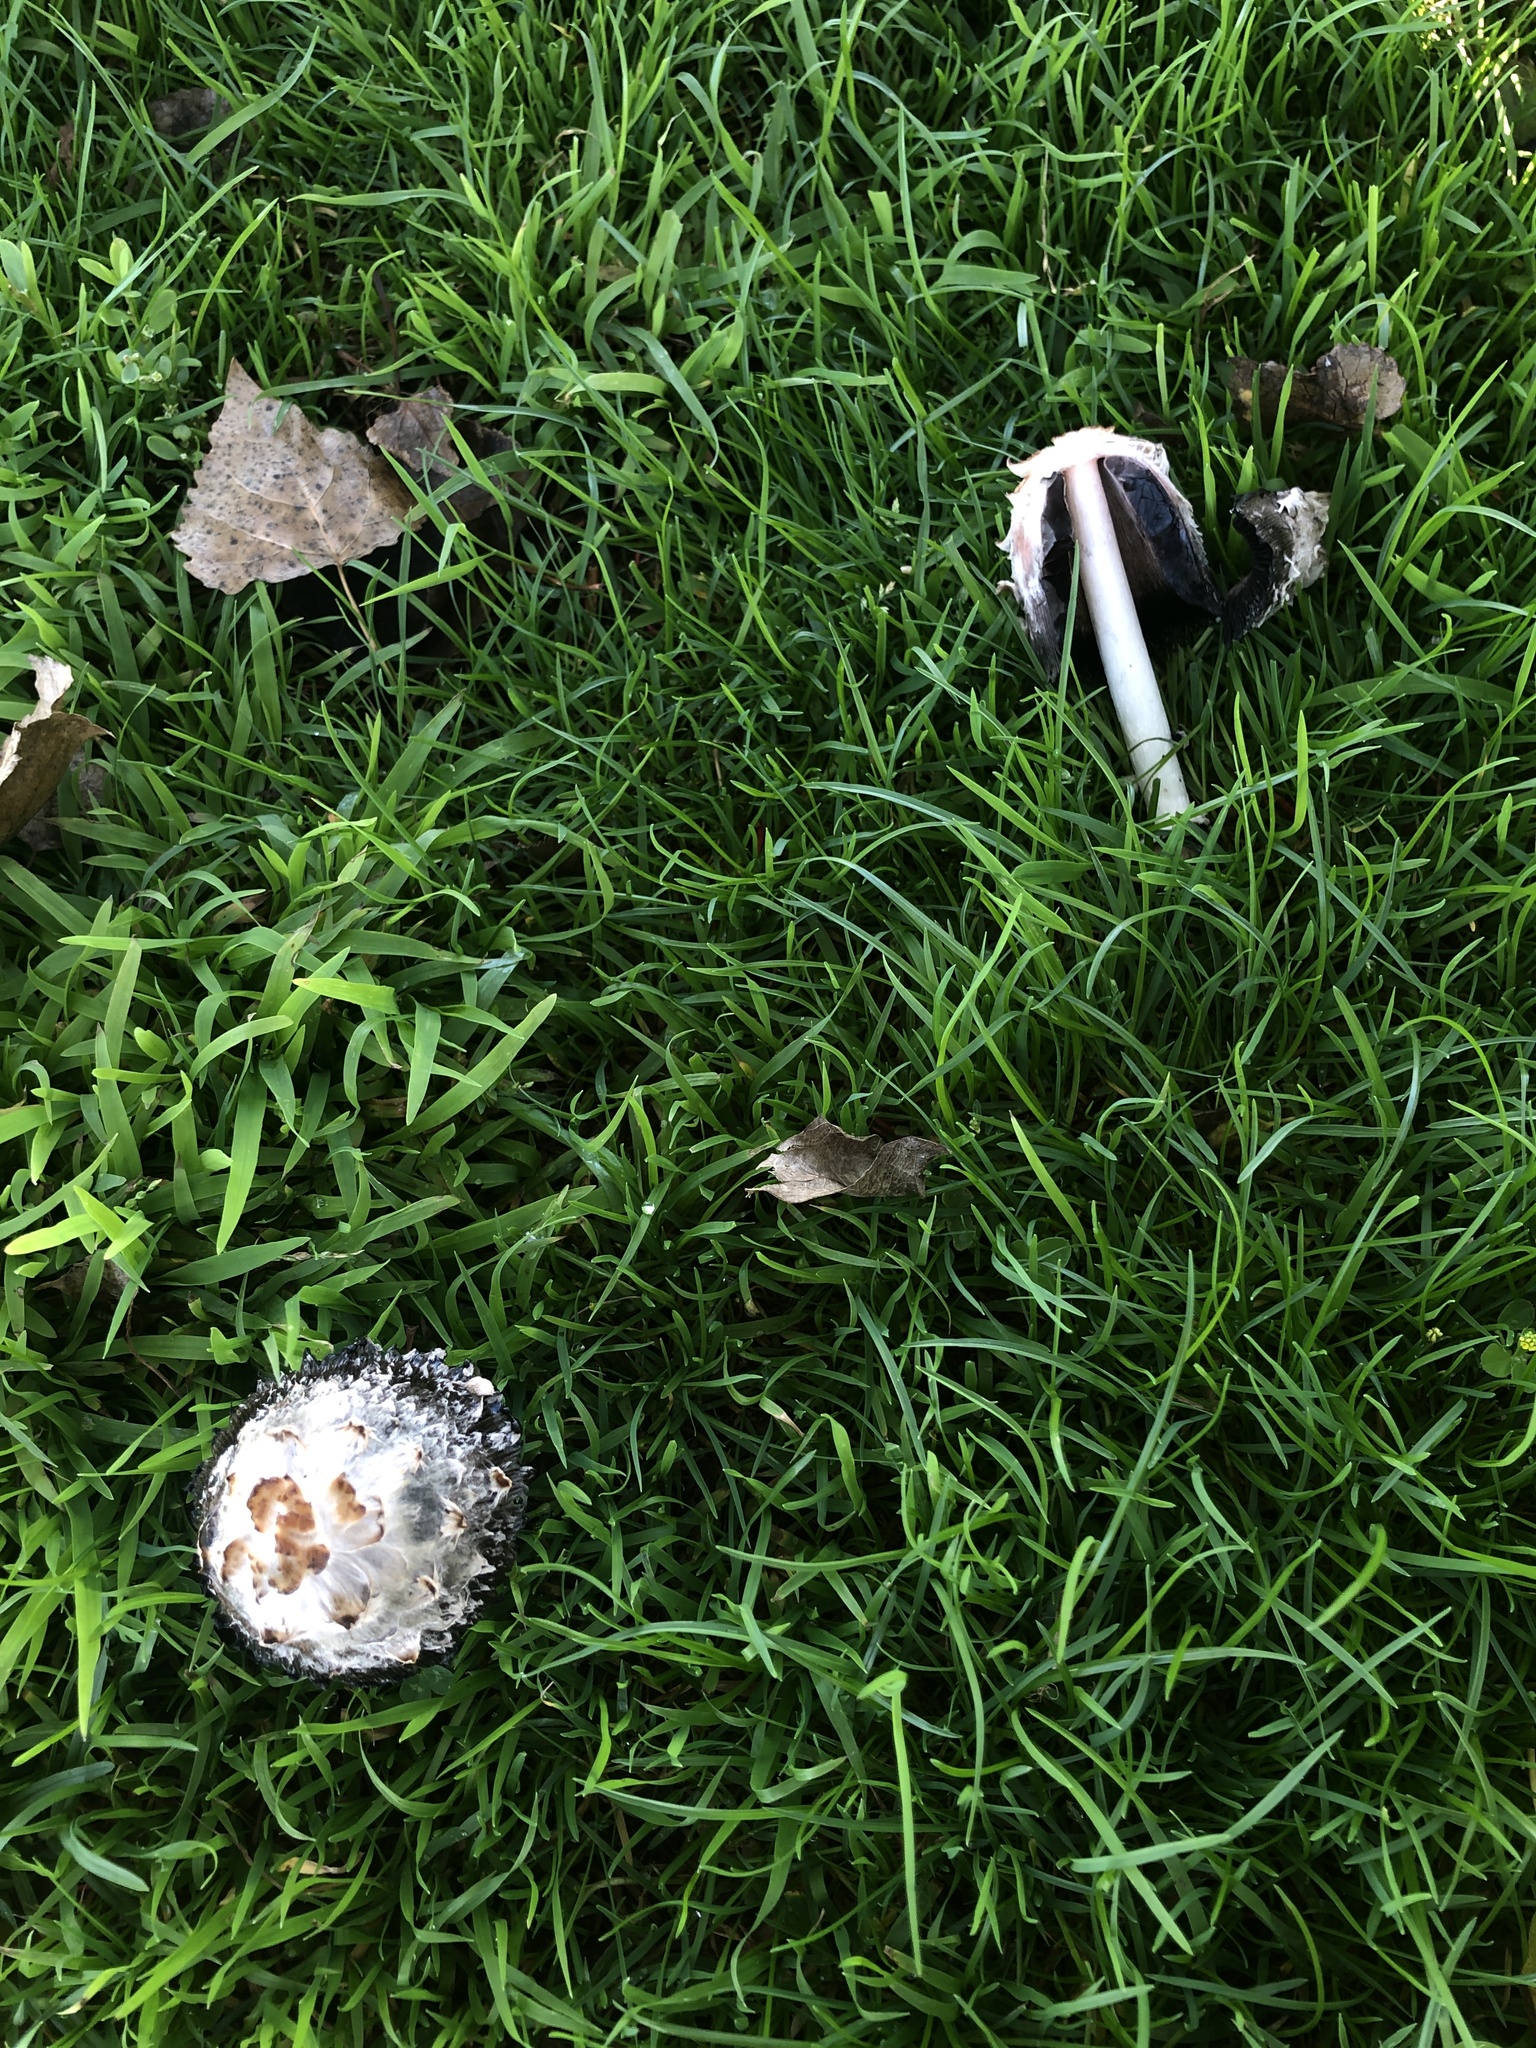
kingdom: Fungi
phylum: Basidiomycota
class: Agaricomycetes
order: Agaricales
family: Agaricaceae
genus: Coprinus
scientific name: Coprinus comatus
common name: Lawyer's wig
